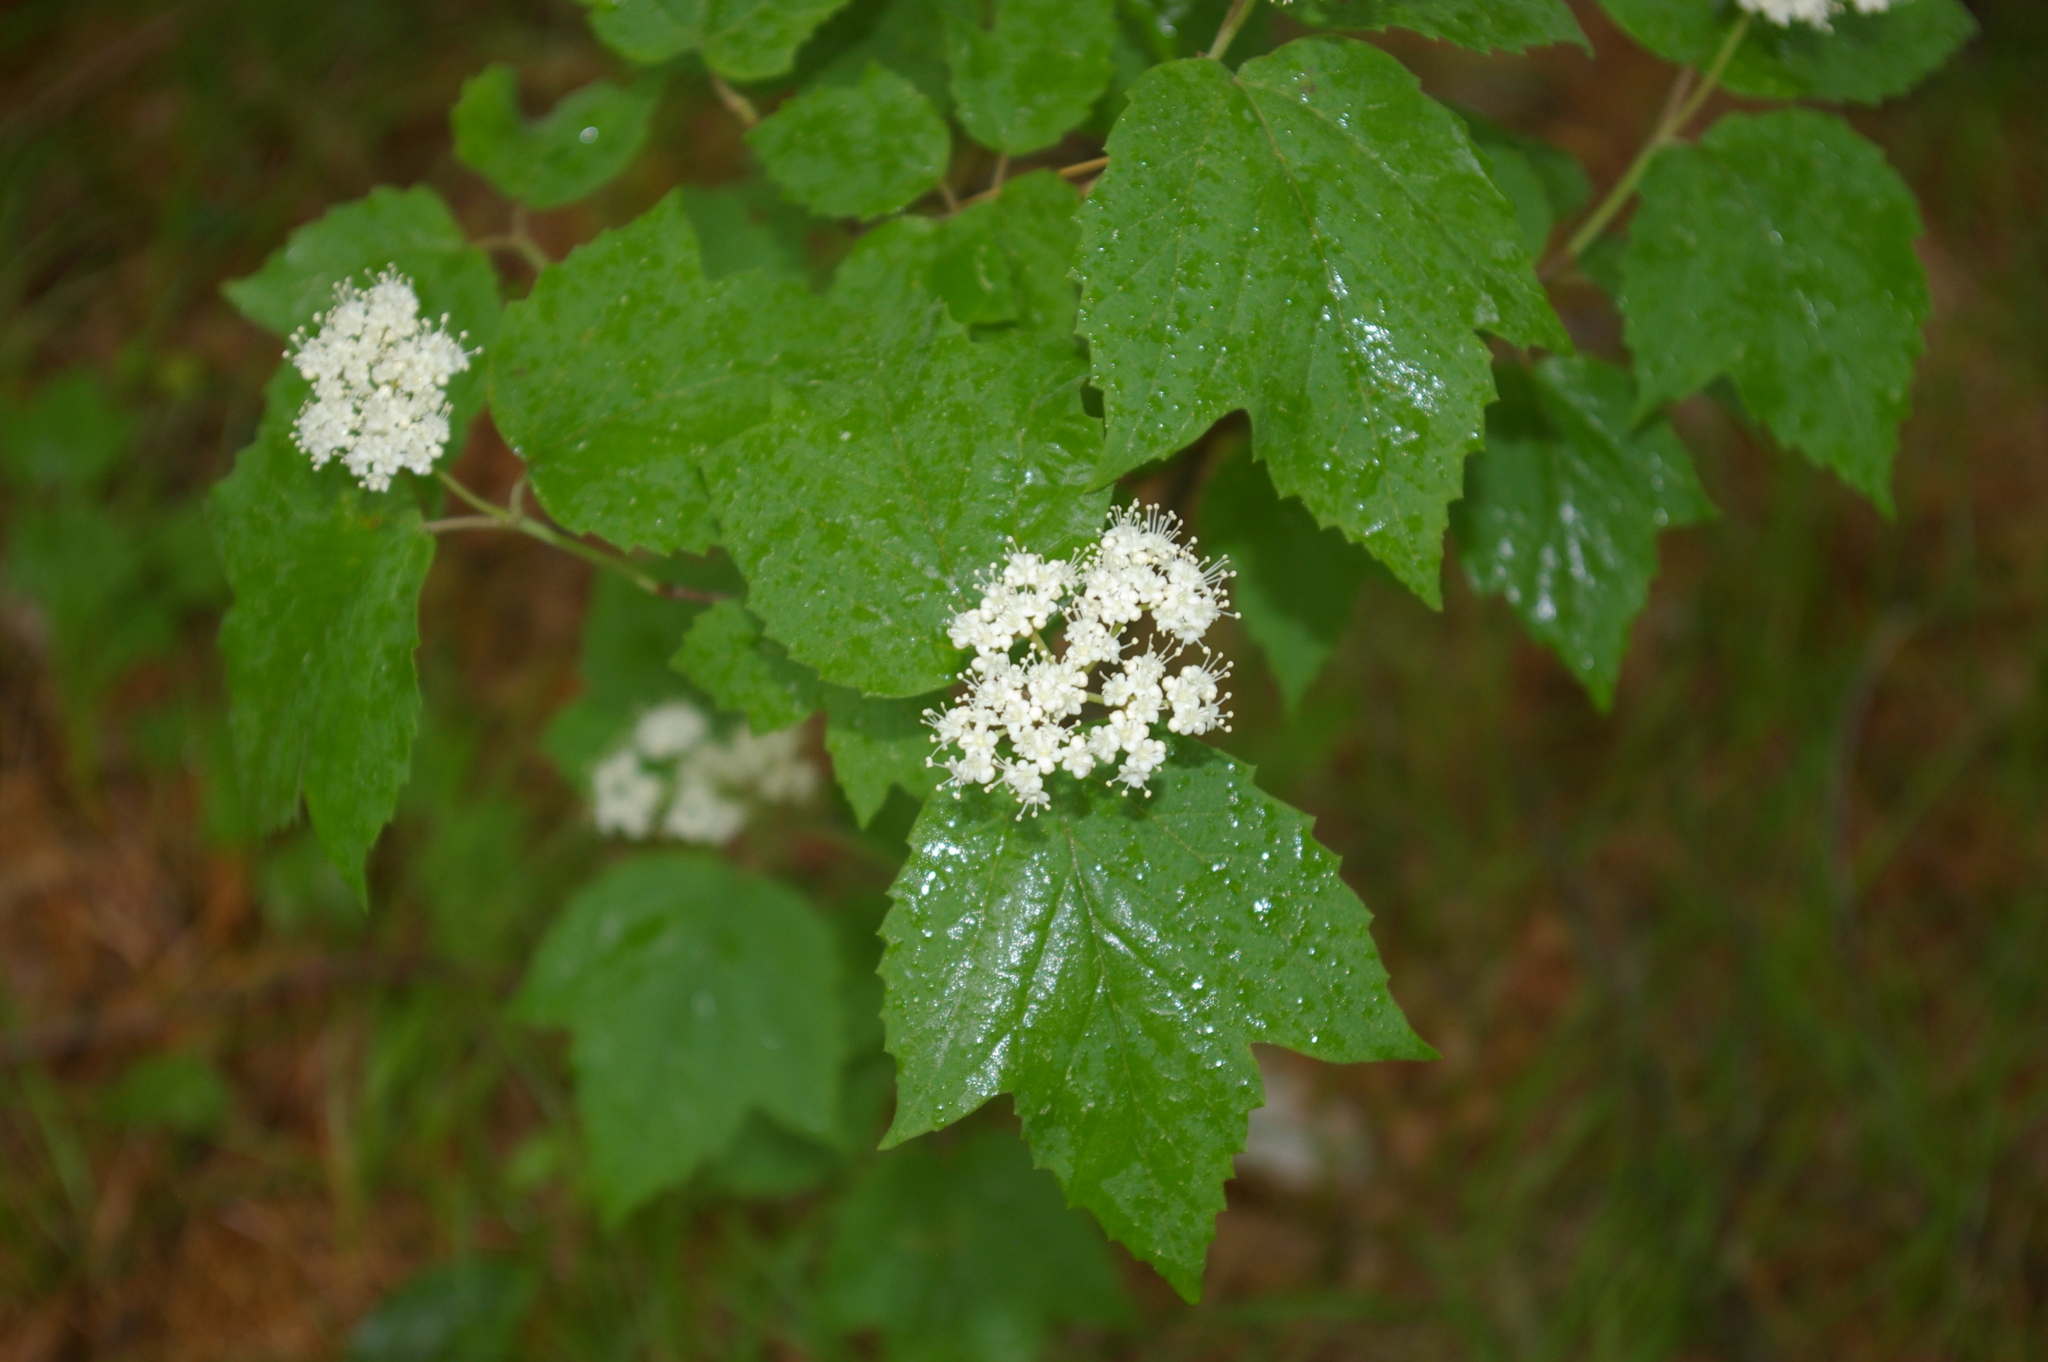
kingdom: Plantae
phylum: Tracheophyta
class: Magnoliopsida
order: Dipsacales
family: Viburnaceae
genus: Viburnum
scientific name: Viburnum acerifolium
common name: Dockmackie
